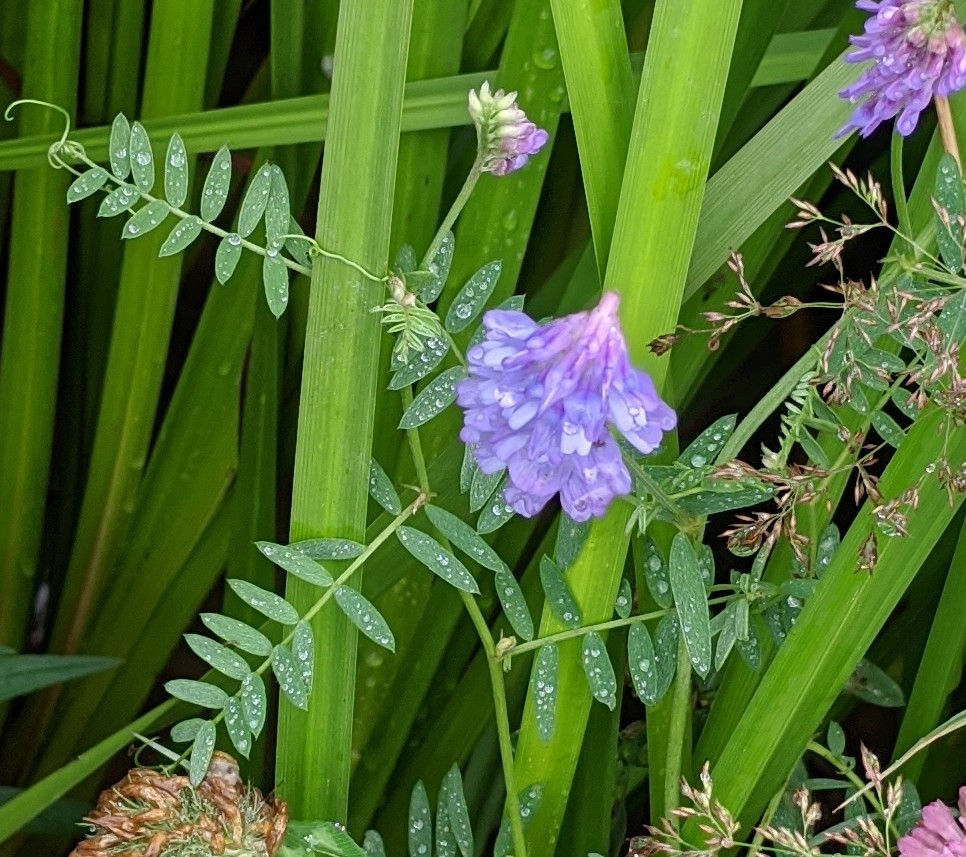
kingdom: Plantae
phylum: Tracheophyta
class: Magnoliopsida
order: Fabales
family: Fabaceae
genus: Vicia
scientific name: Vicia cracca
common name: Bird vetch
